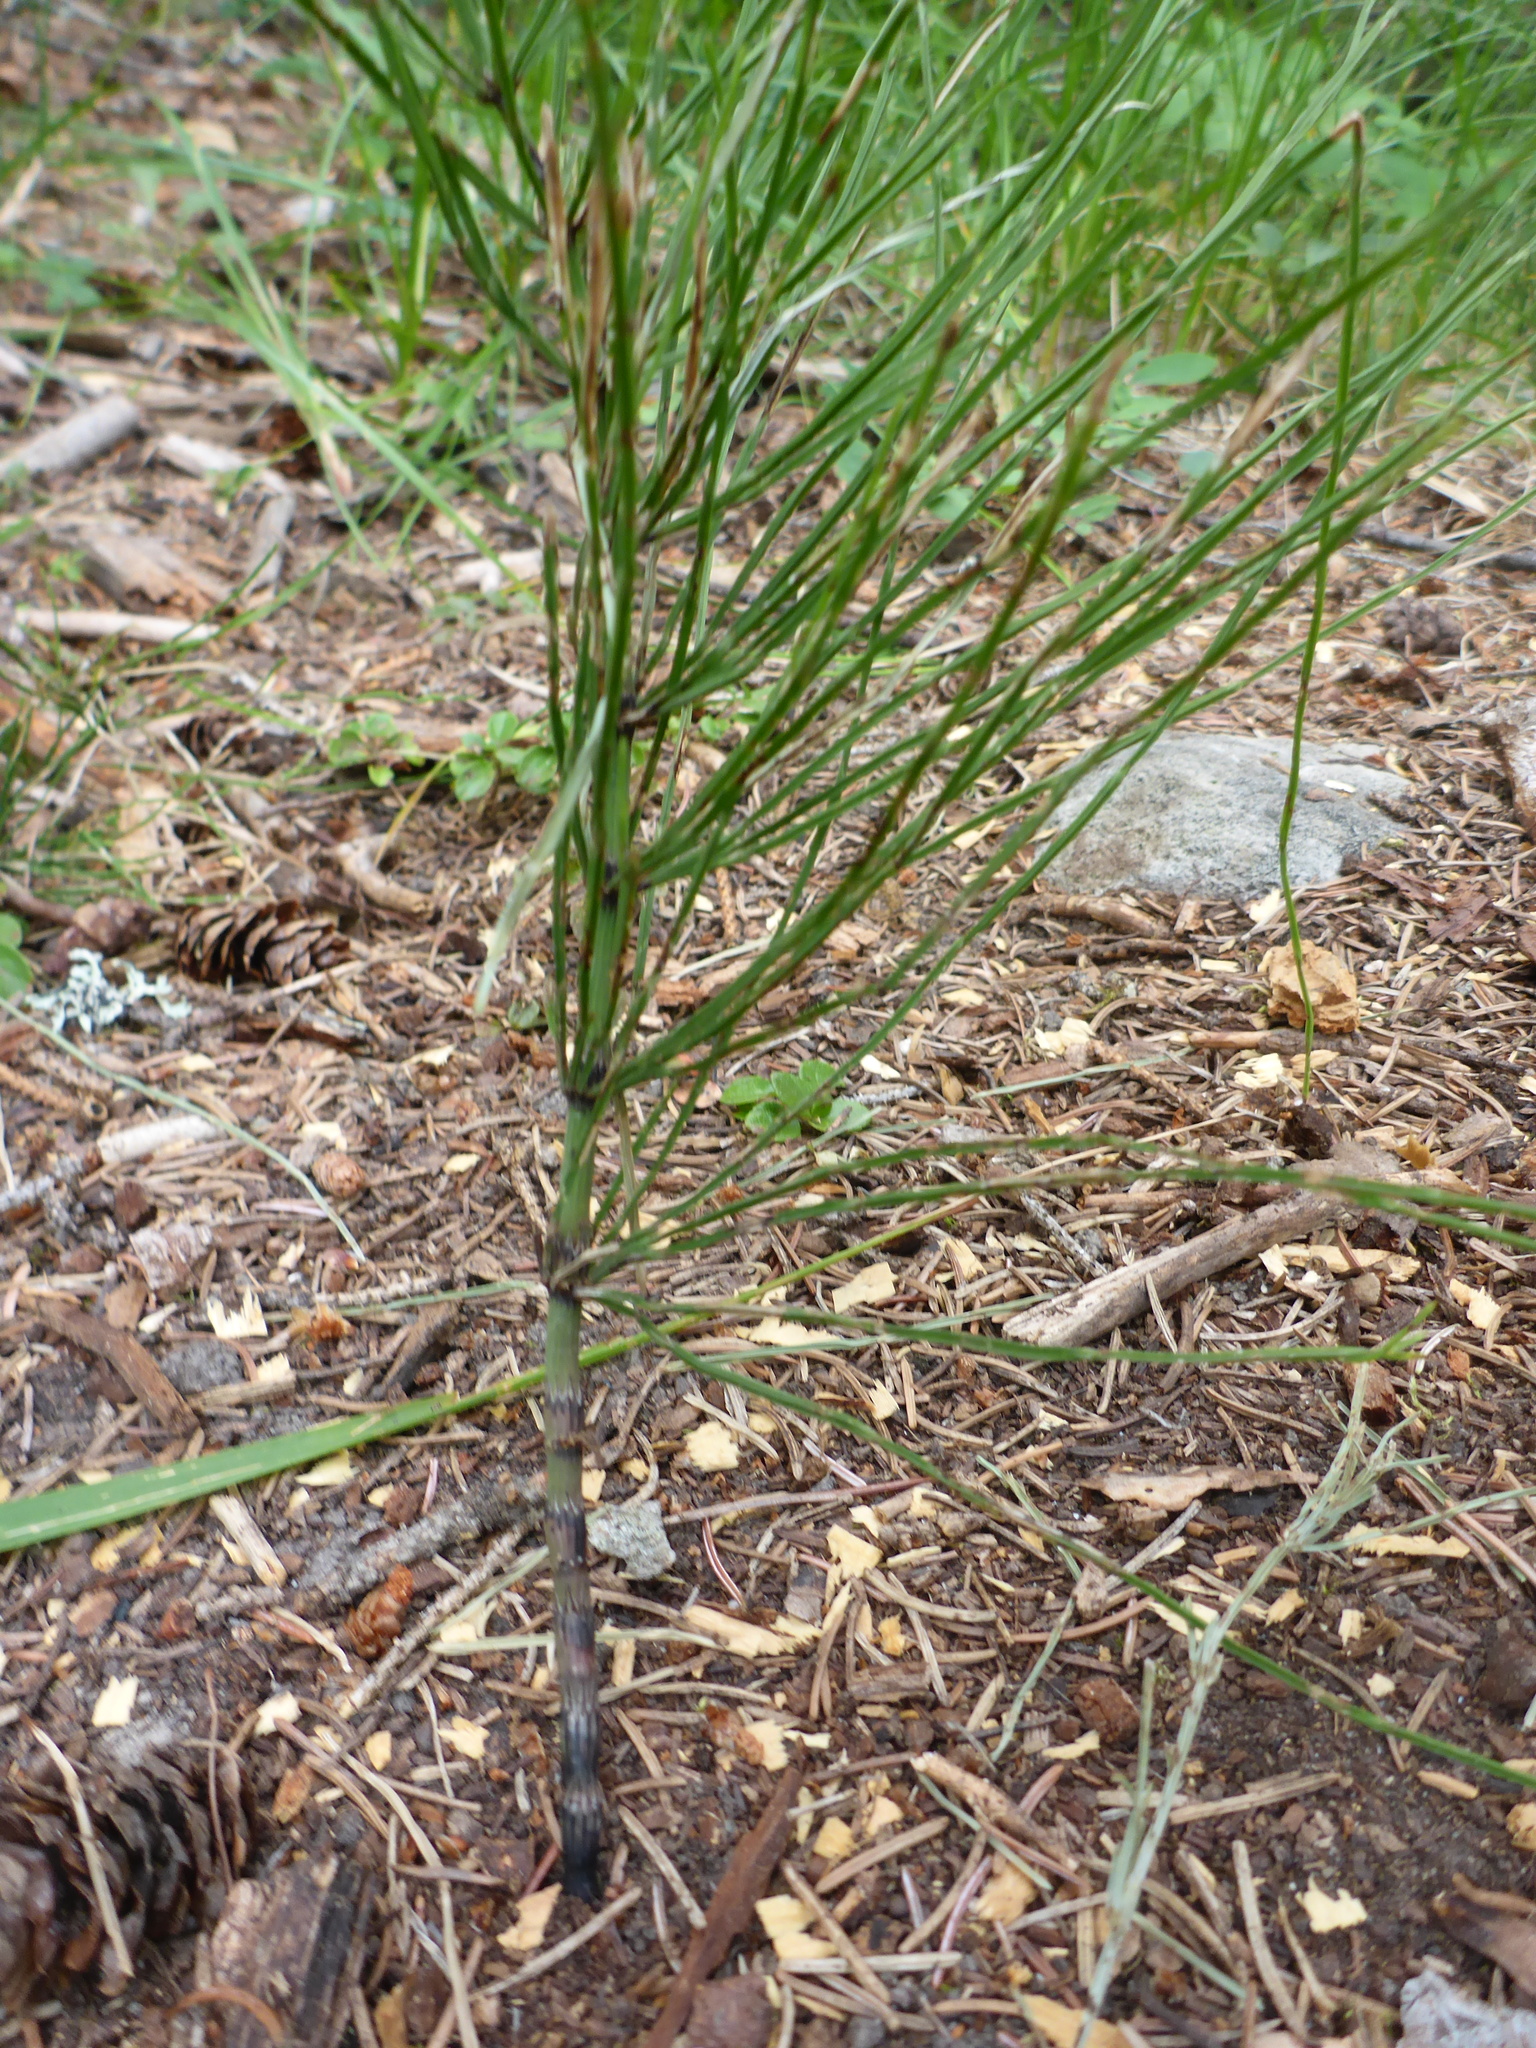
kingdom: Plantae
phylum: Tracheophyta
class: Polypodiopsida
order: Equisetales
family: Equisetaceae
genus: Equisetum
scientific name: Equisetum arvense
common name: Field horsetail
